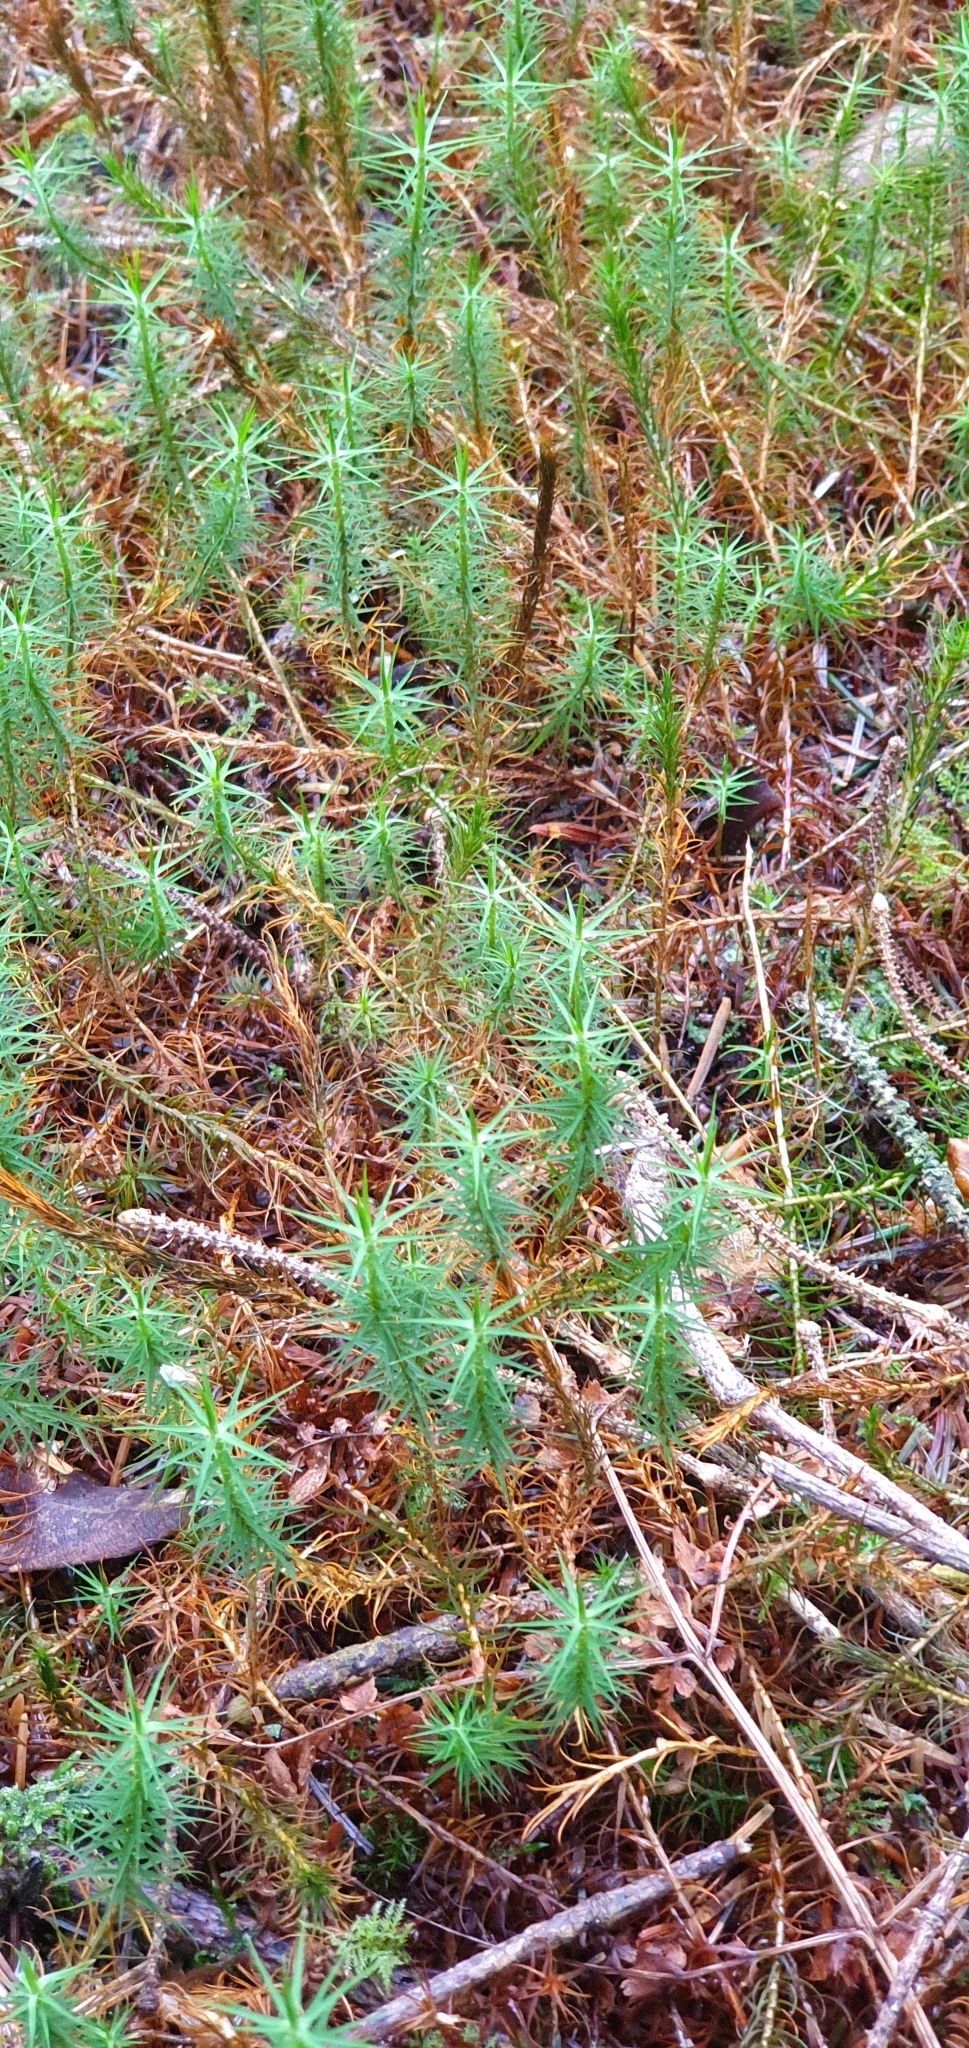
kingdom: Plantae
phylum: Bryophyta
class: Polytrichopsida
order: Polytrichales
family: Polytrichaceae
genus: Polytrichum
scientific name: Polytrichum commune
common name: Common haircap
